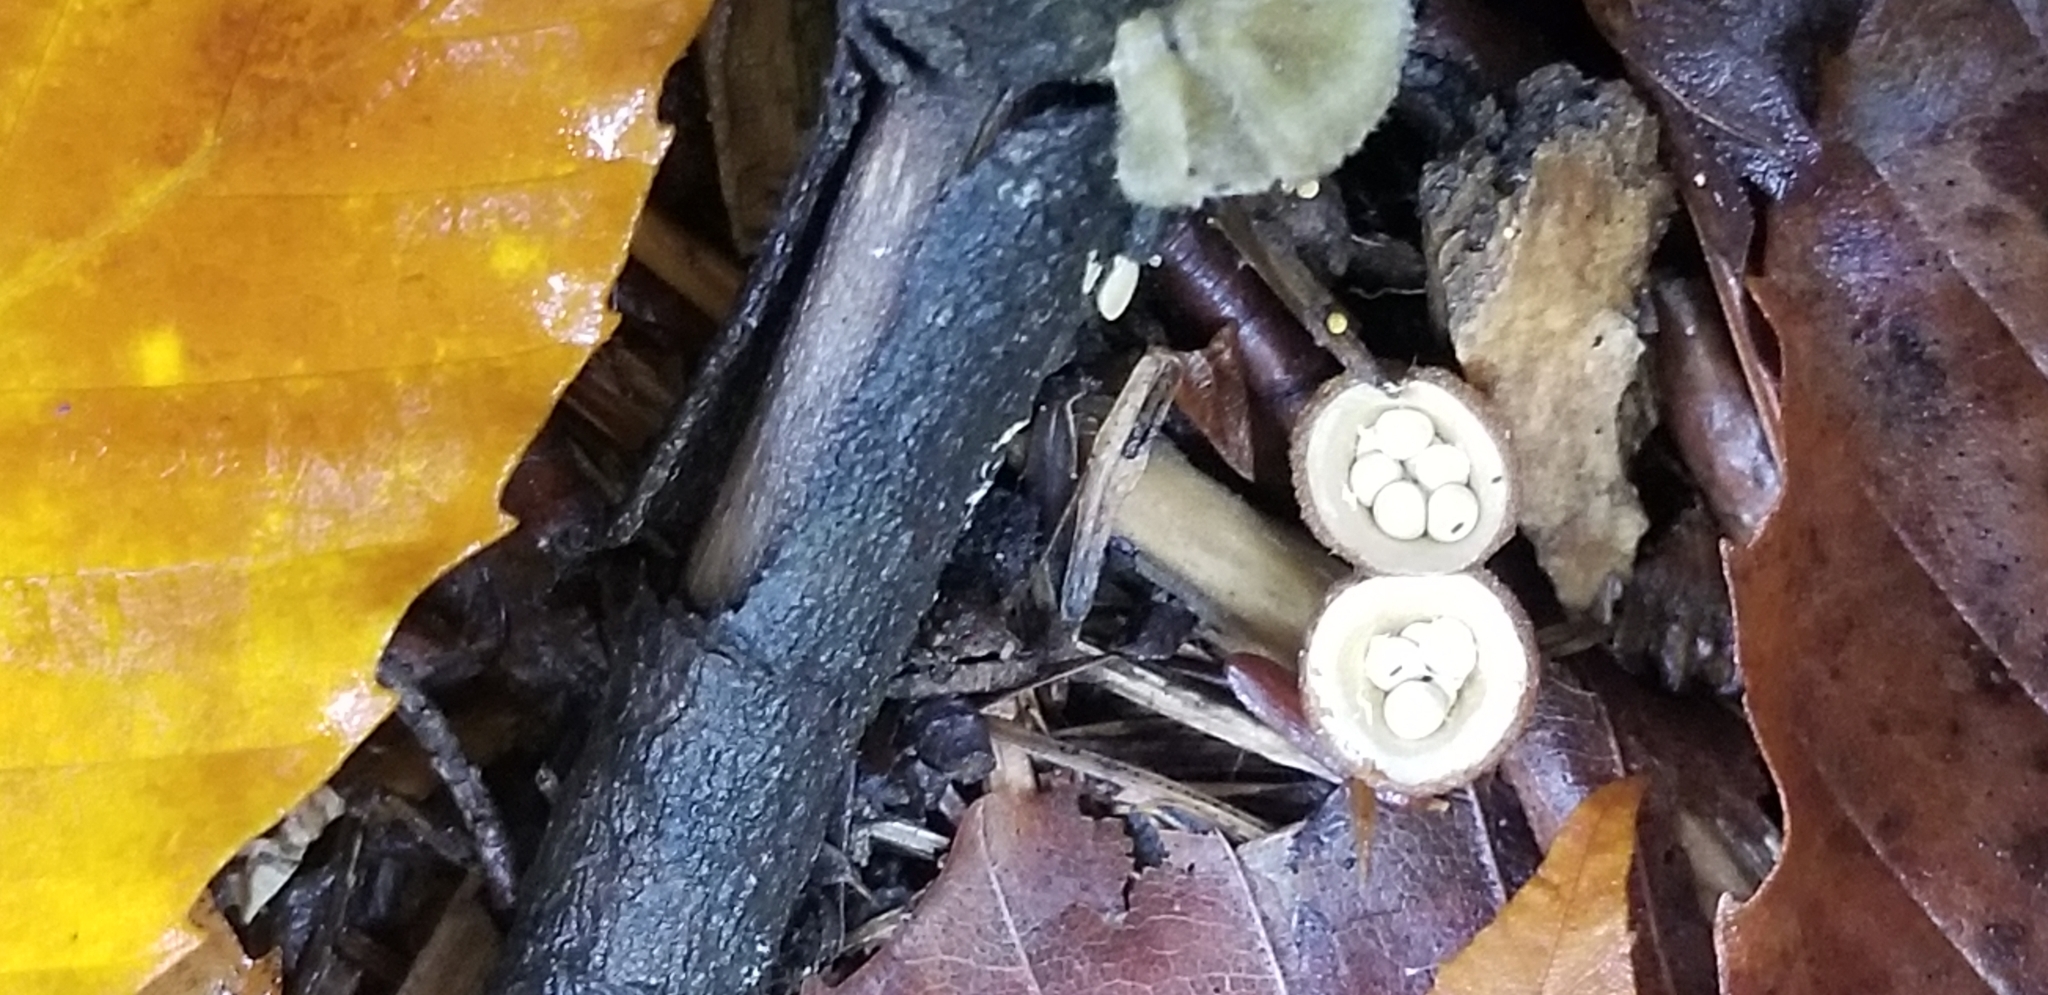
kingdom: Fungi
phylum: Basidiomycota
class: Agaricomycetes
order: Agaricales
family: Nidulariaceae
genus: Crucibulum
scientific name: Crucibulum laeve
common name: Common bird's nest
